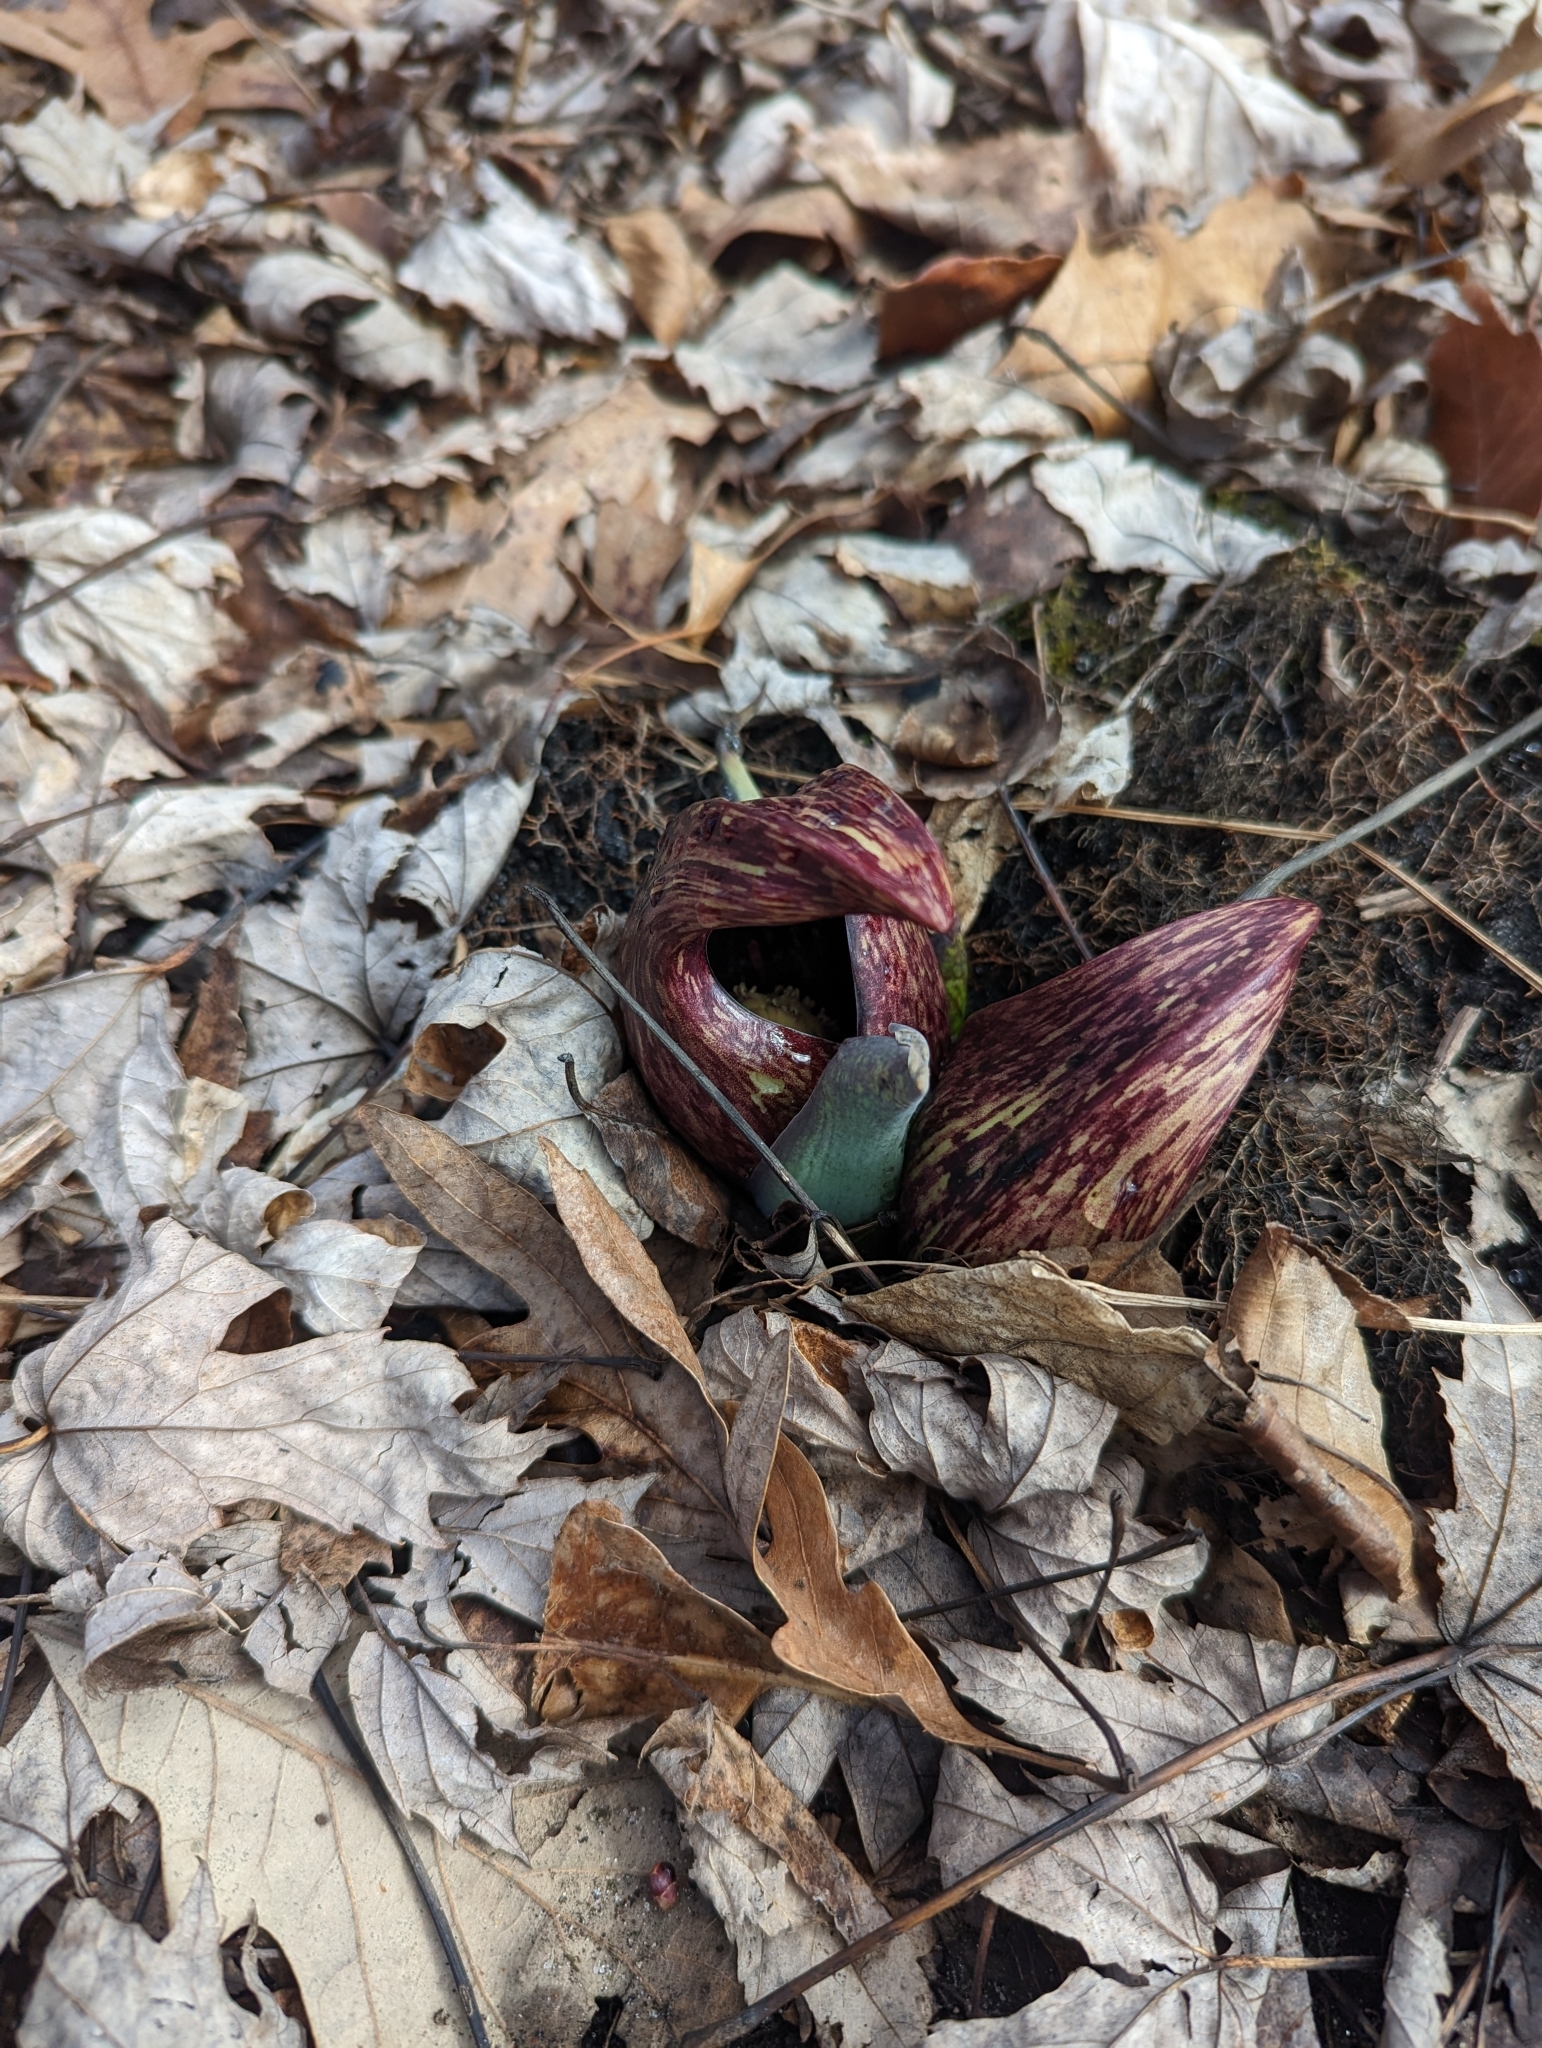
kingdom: Plantae
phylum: Tracheophyta
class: Liliopsida
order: Alismatales
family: Araceae
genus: Symplocarpus
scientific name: Symplocarpus foetidus
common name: Eastern skunk cabbage
